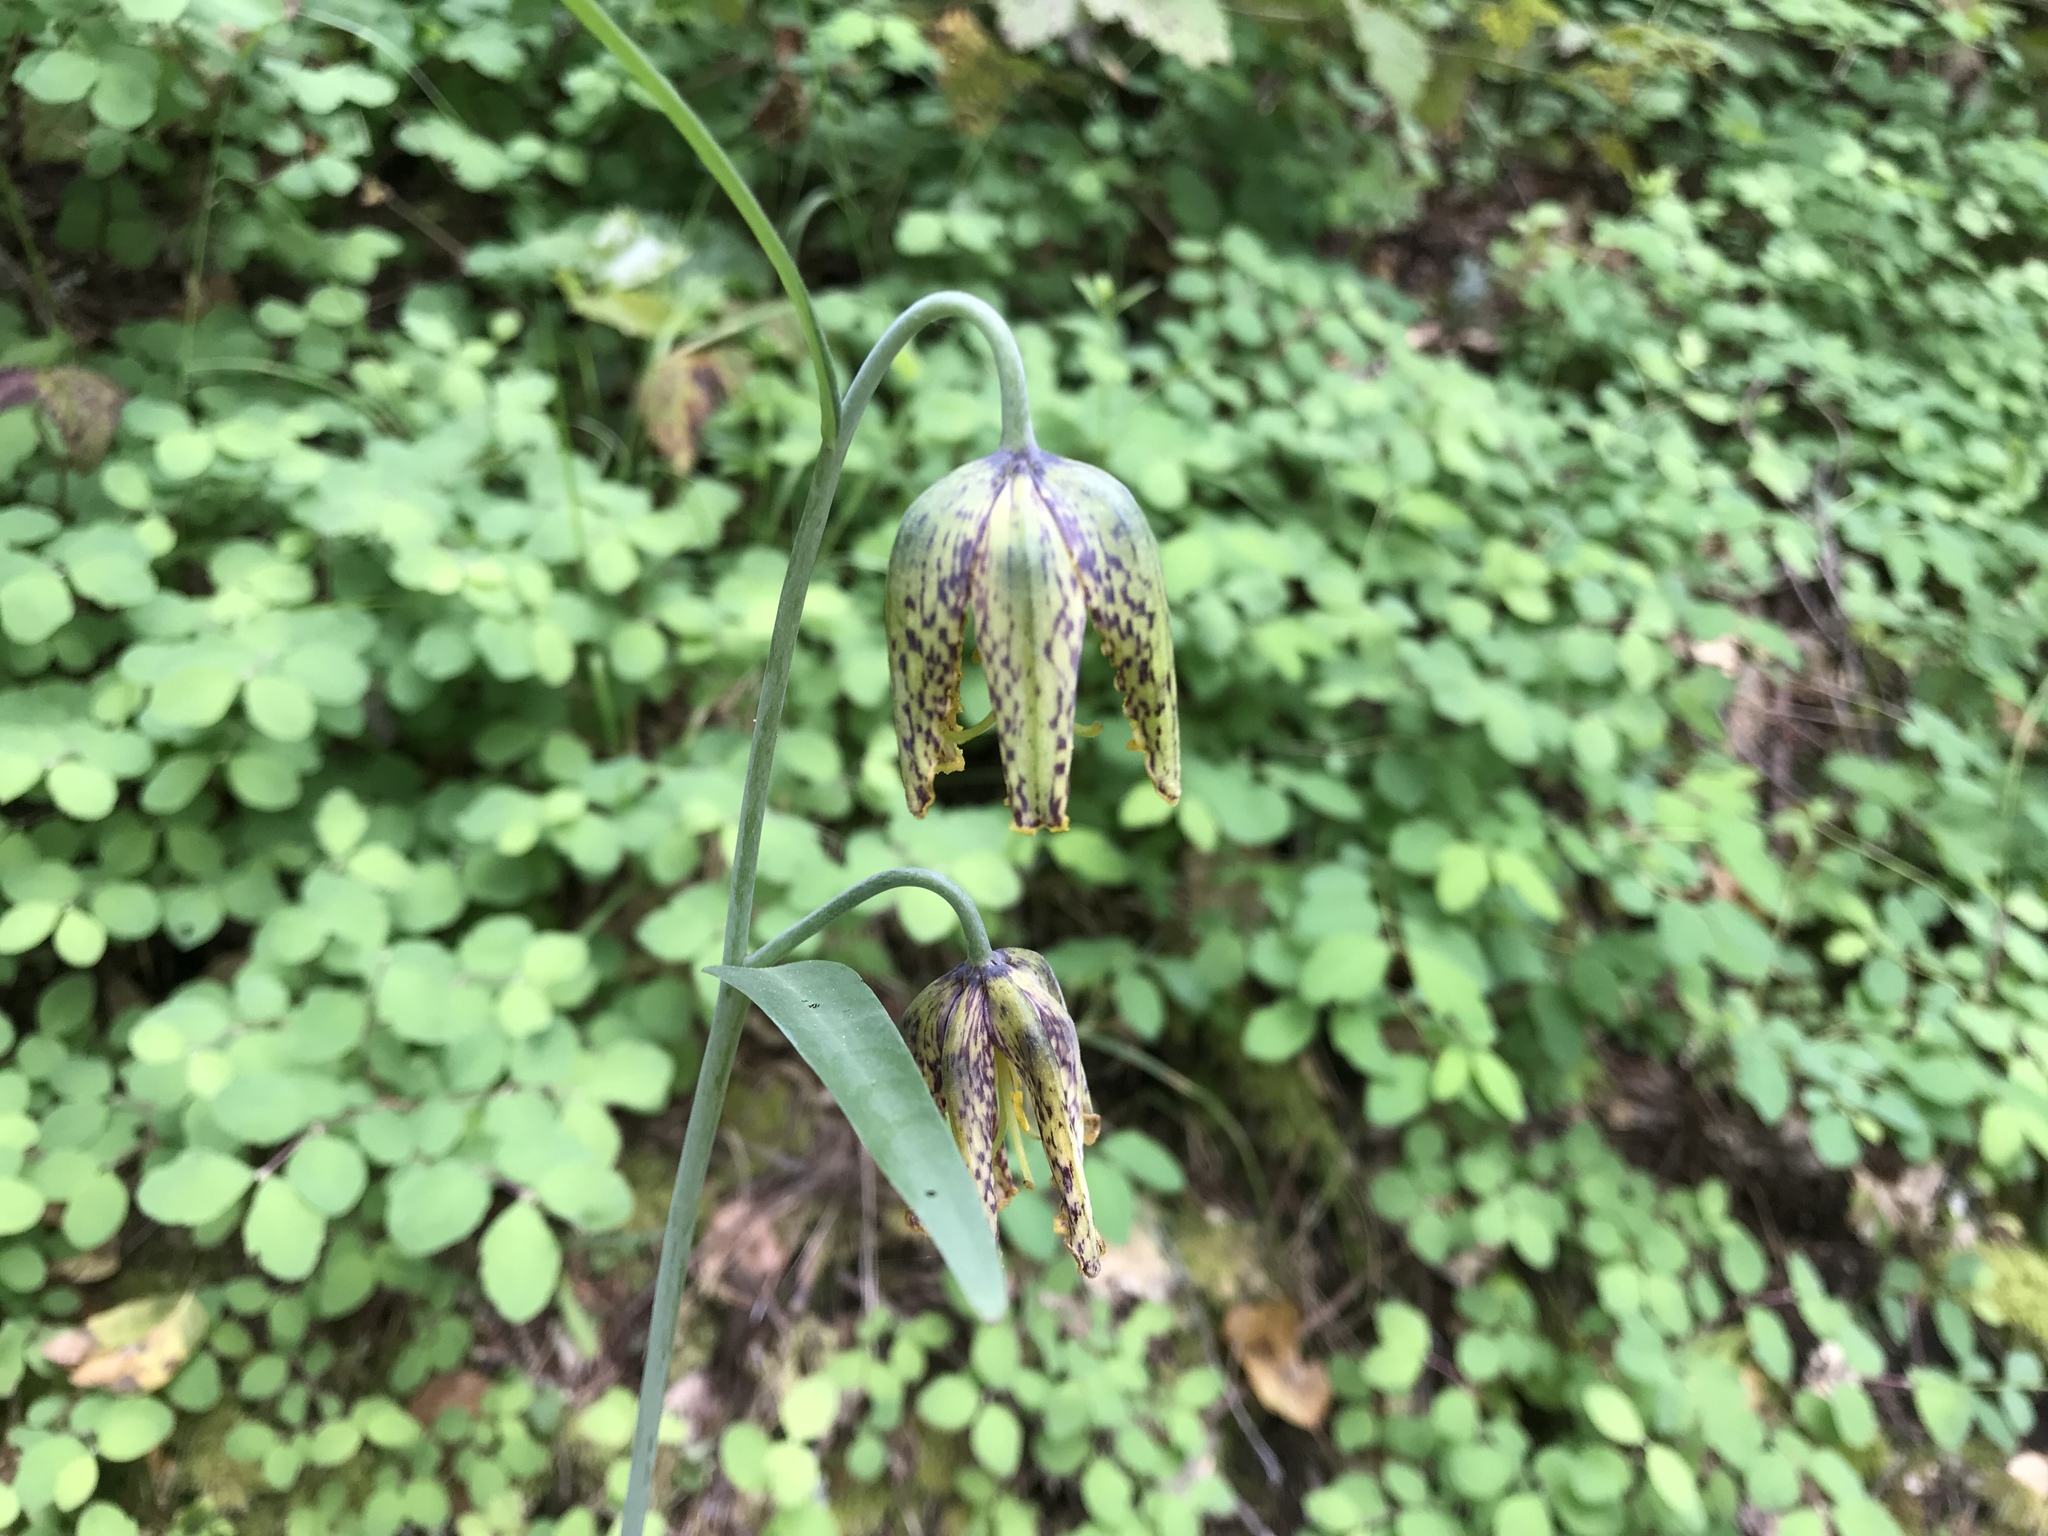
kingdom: Plantae
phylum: Tracheophyta
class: Liliopsida
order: Liliales
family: Liliaceae
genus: Fritillaria
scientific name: Fritillaria affinis
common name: Ojai fritillary
